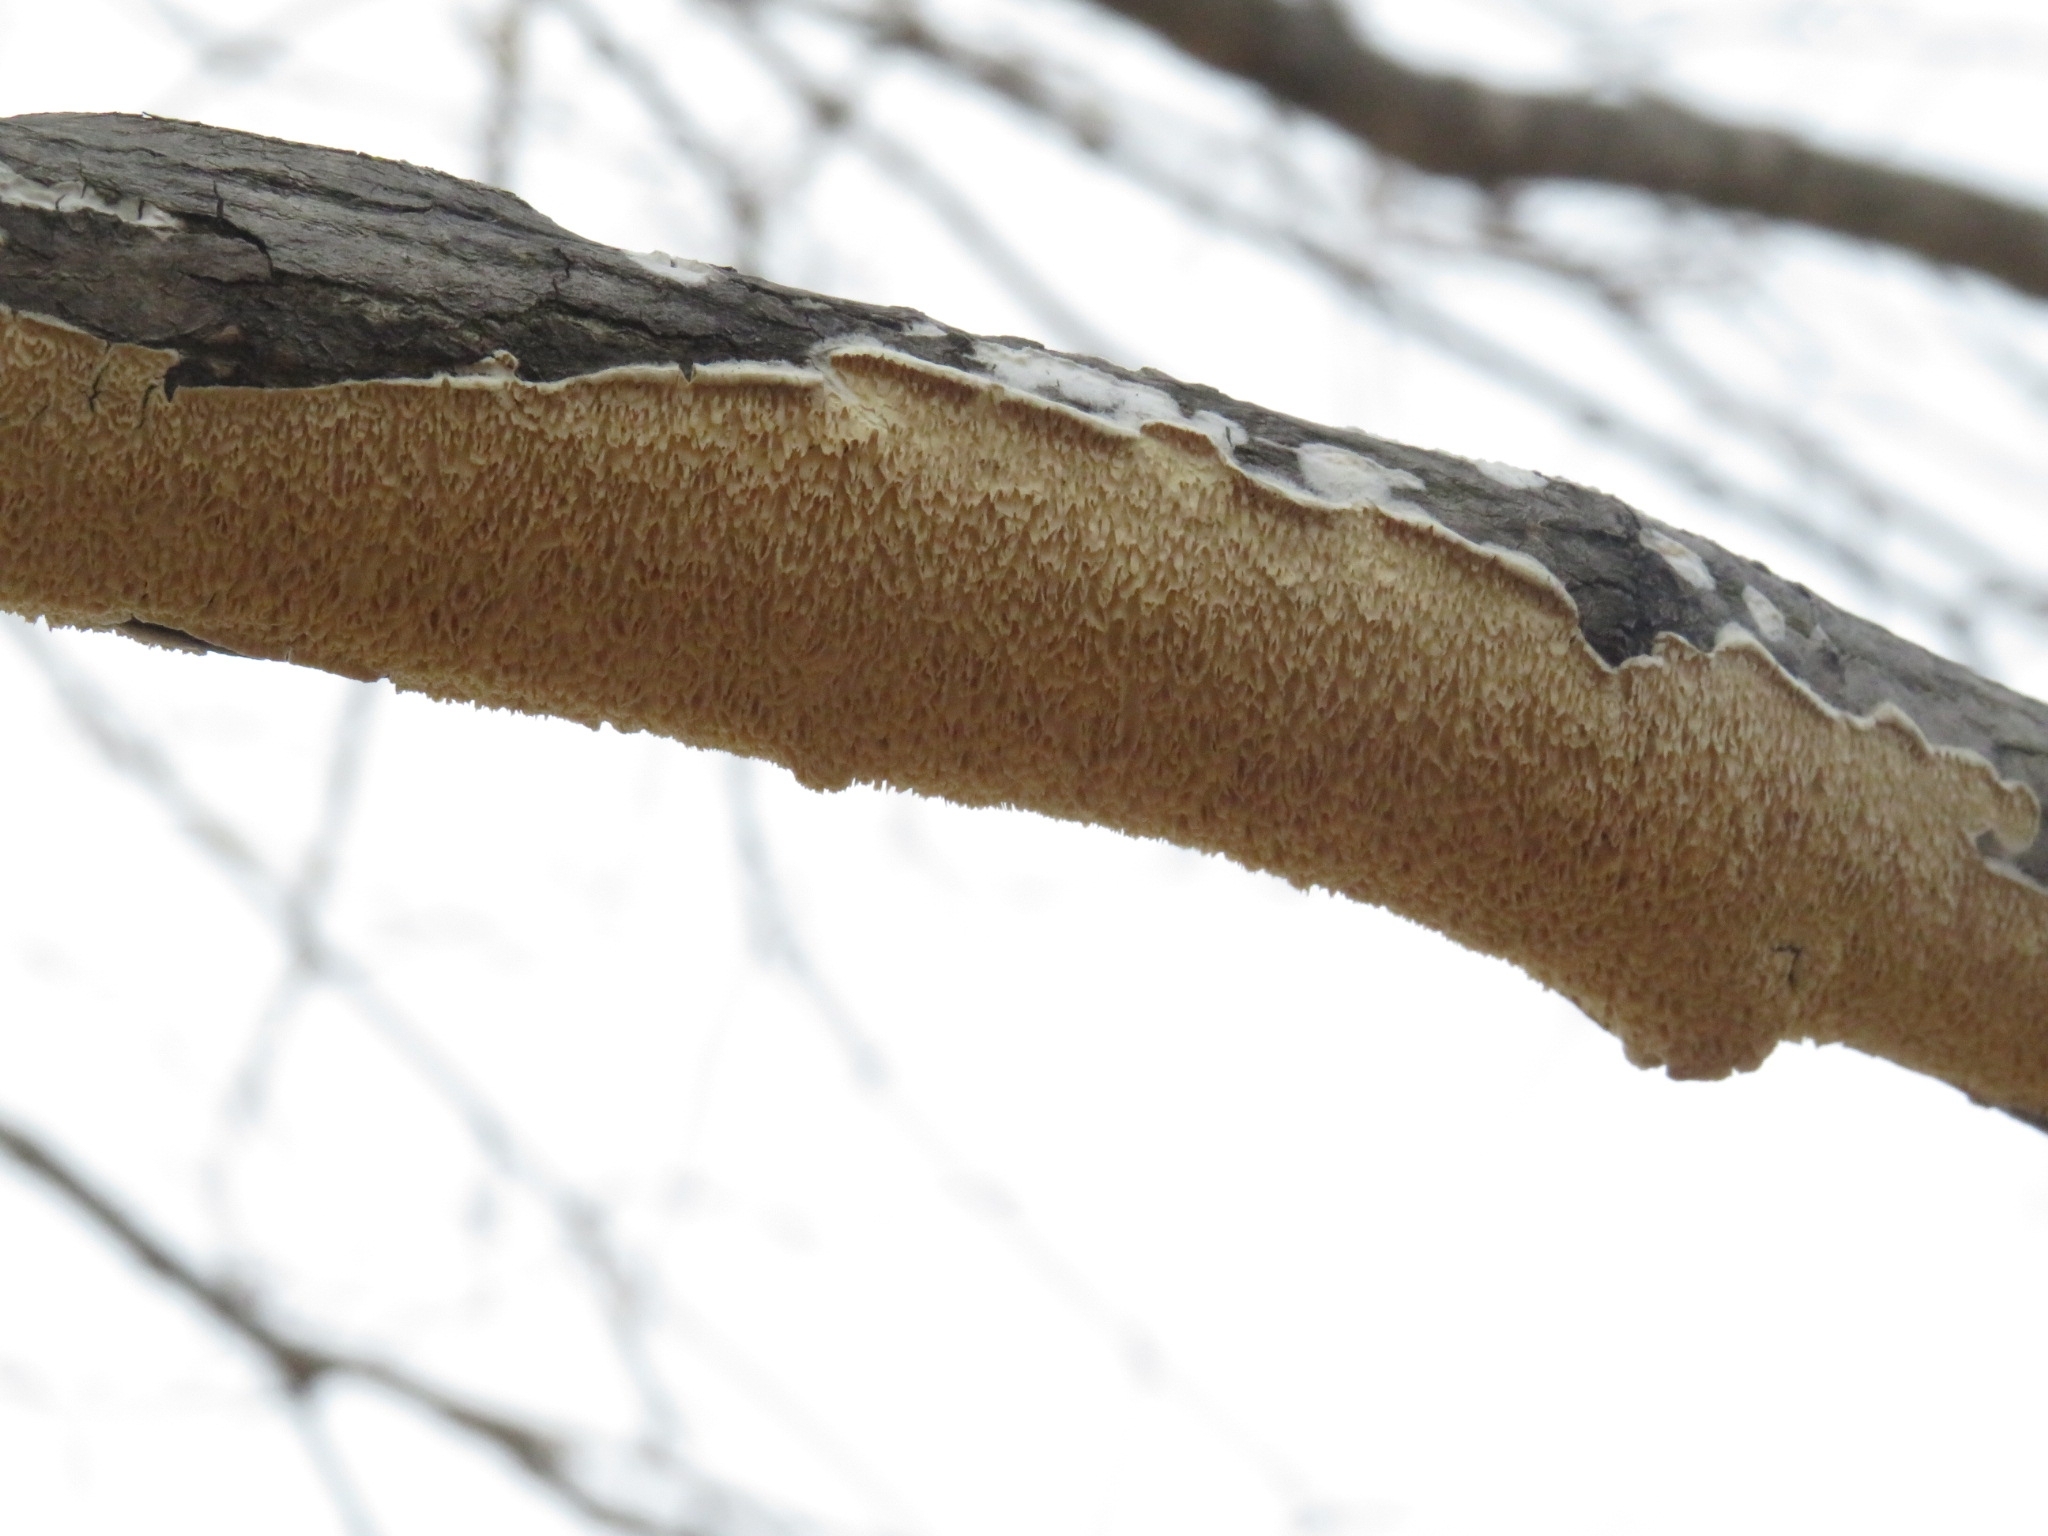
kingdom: Fungi
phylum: Basidiomycota
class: Agaricomycetes
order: Polyporales
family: Irpicaceae
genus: Irpex
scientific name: Irpex lacteus
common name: Milk-white toothed polypore
